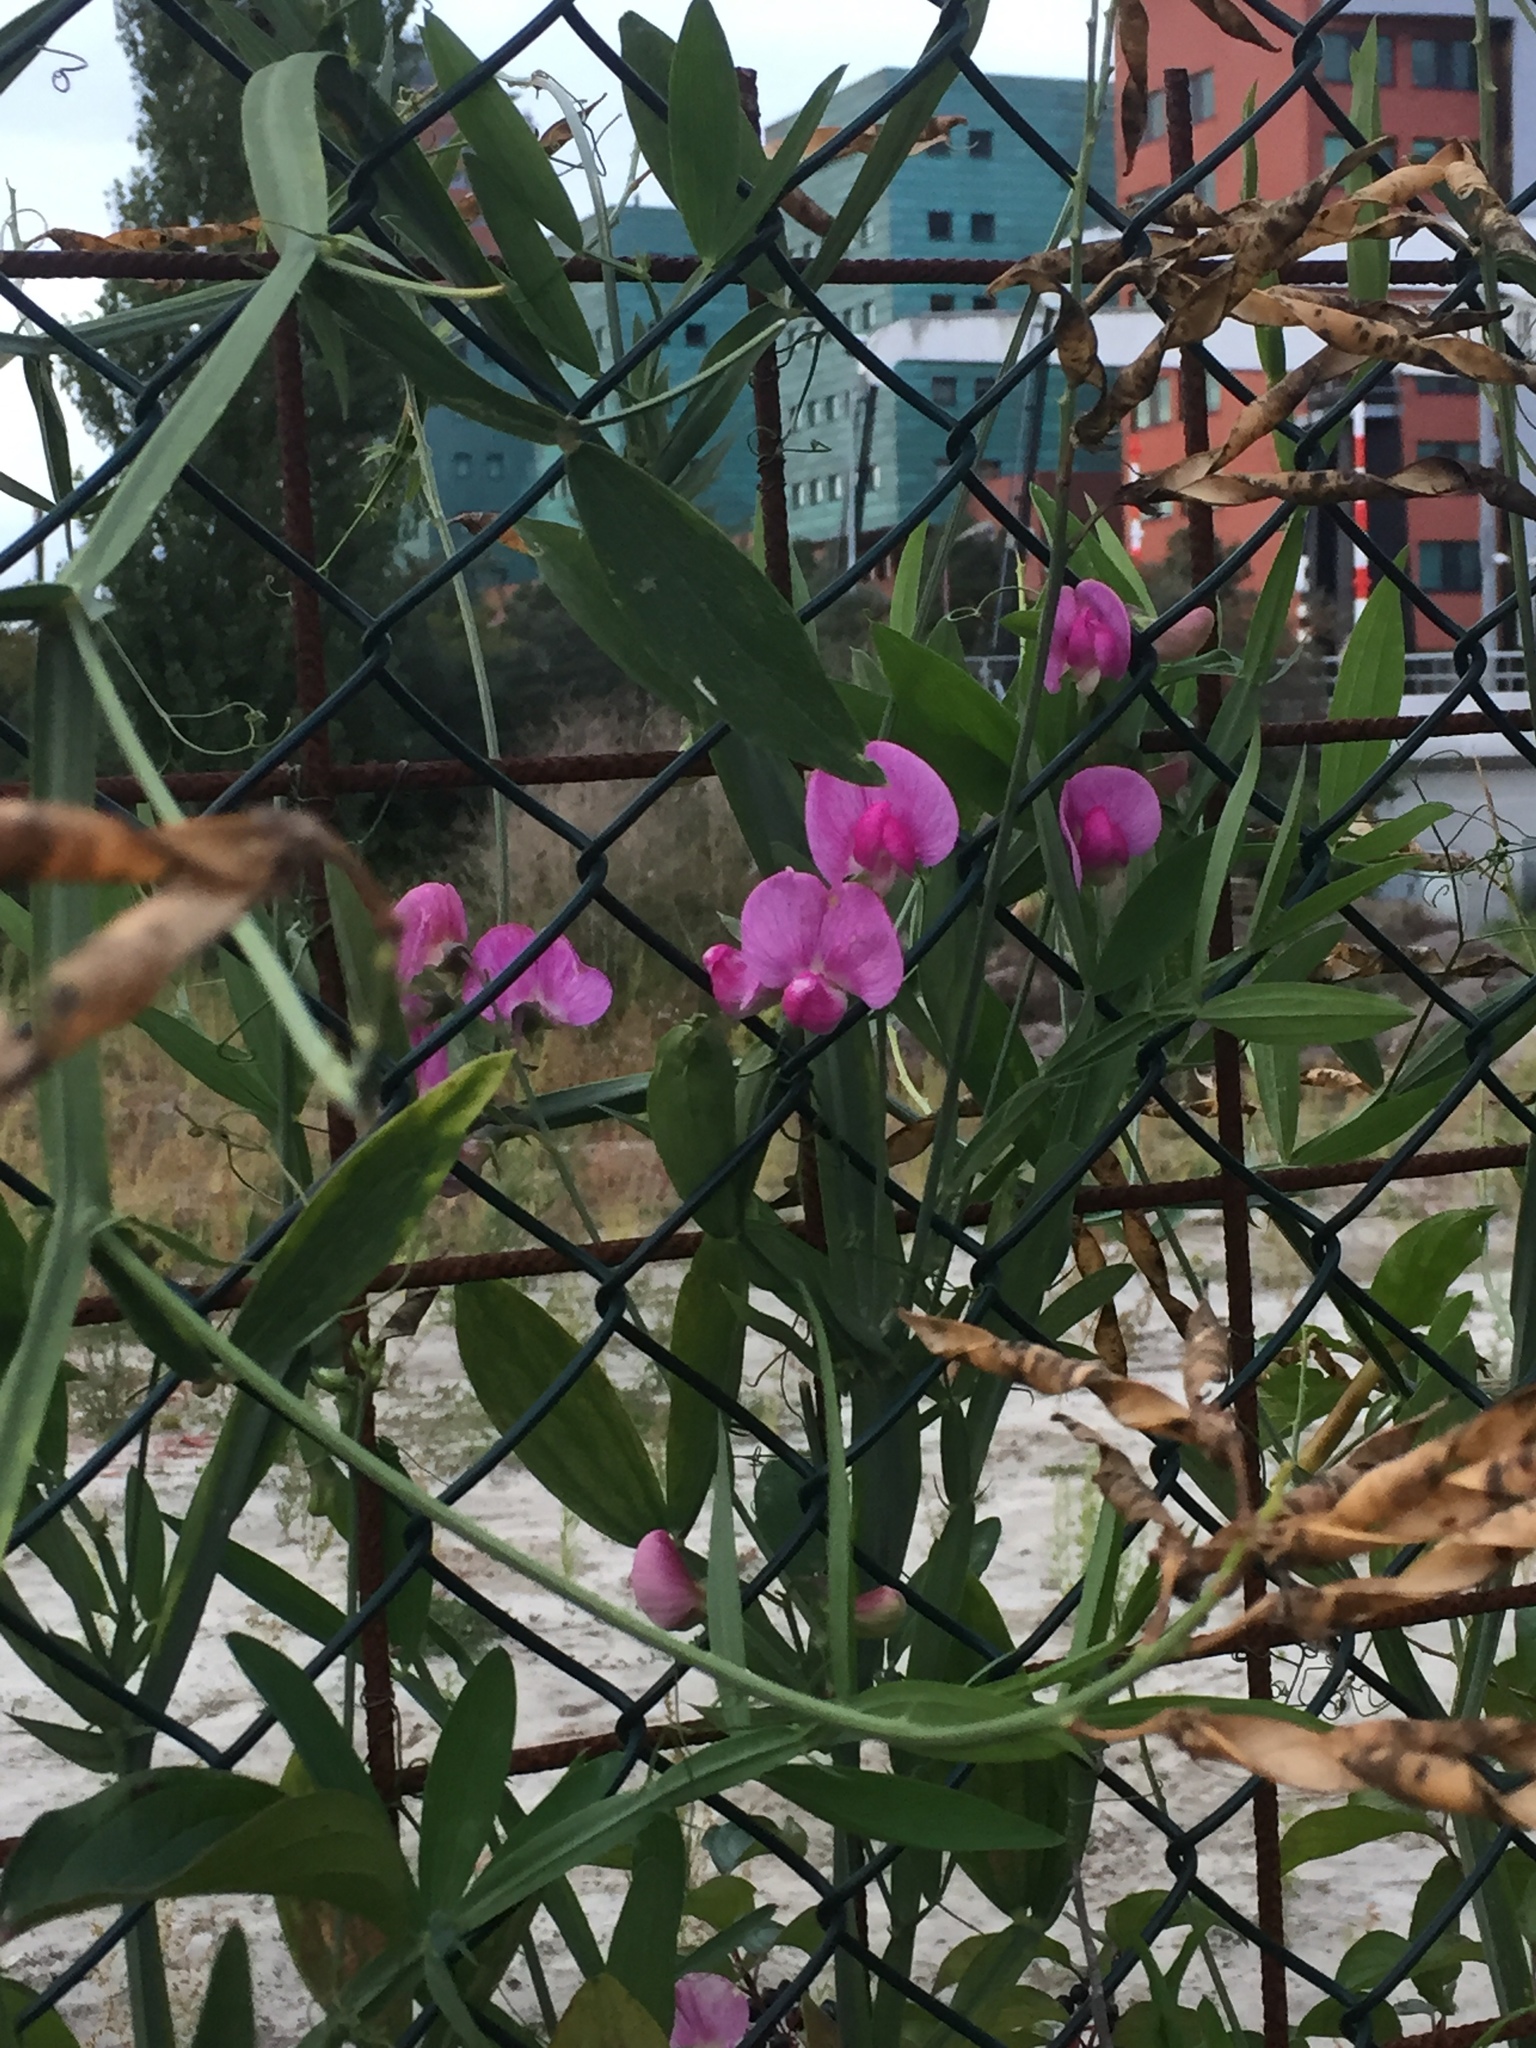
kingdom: Plantae
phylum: Tracheophyta
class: Magnoliopsida
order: Fabales
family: Fabaceae
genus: Lathyrus
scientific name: Lathyrus latifolius
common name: Perennial pea
